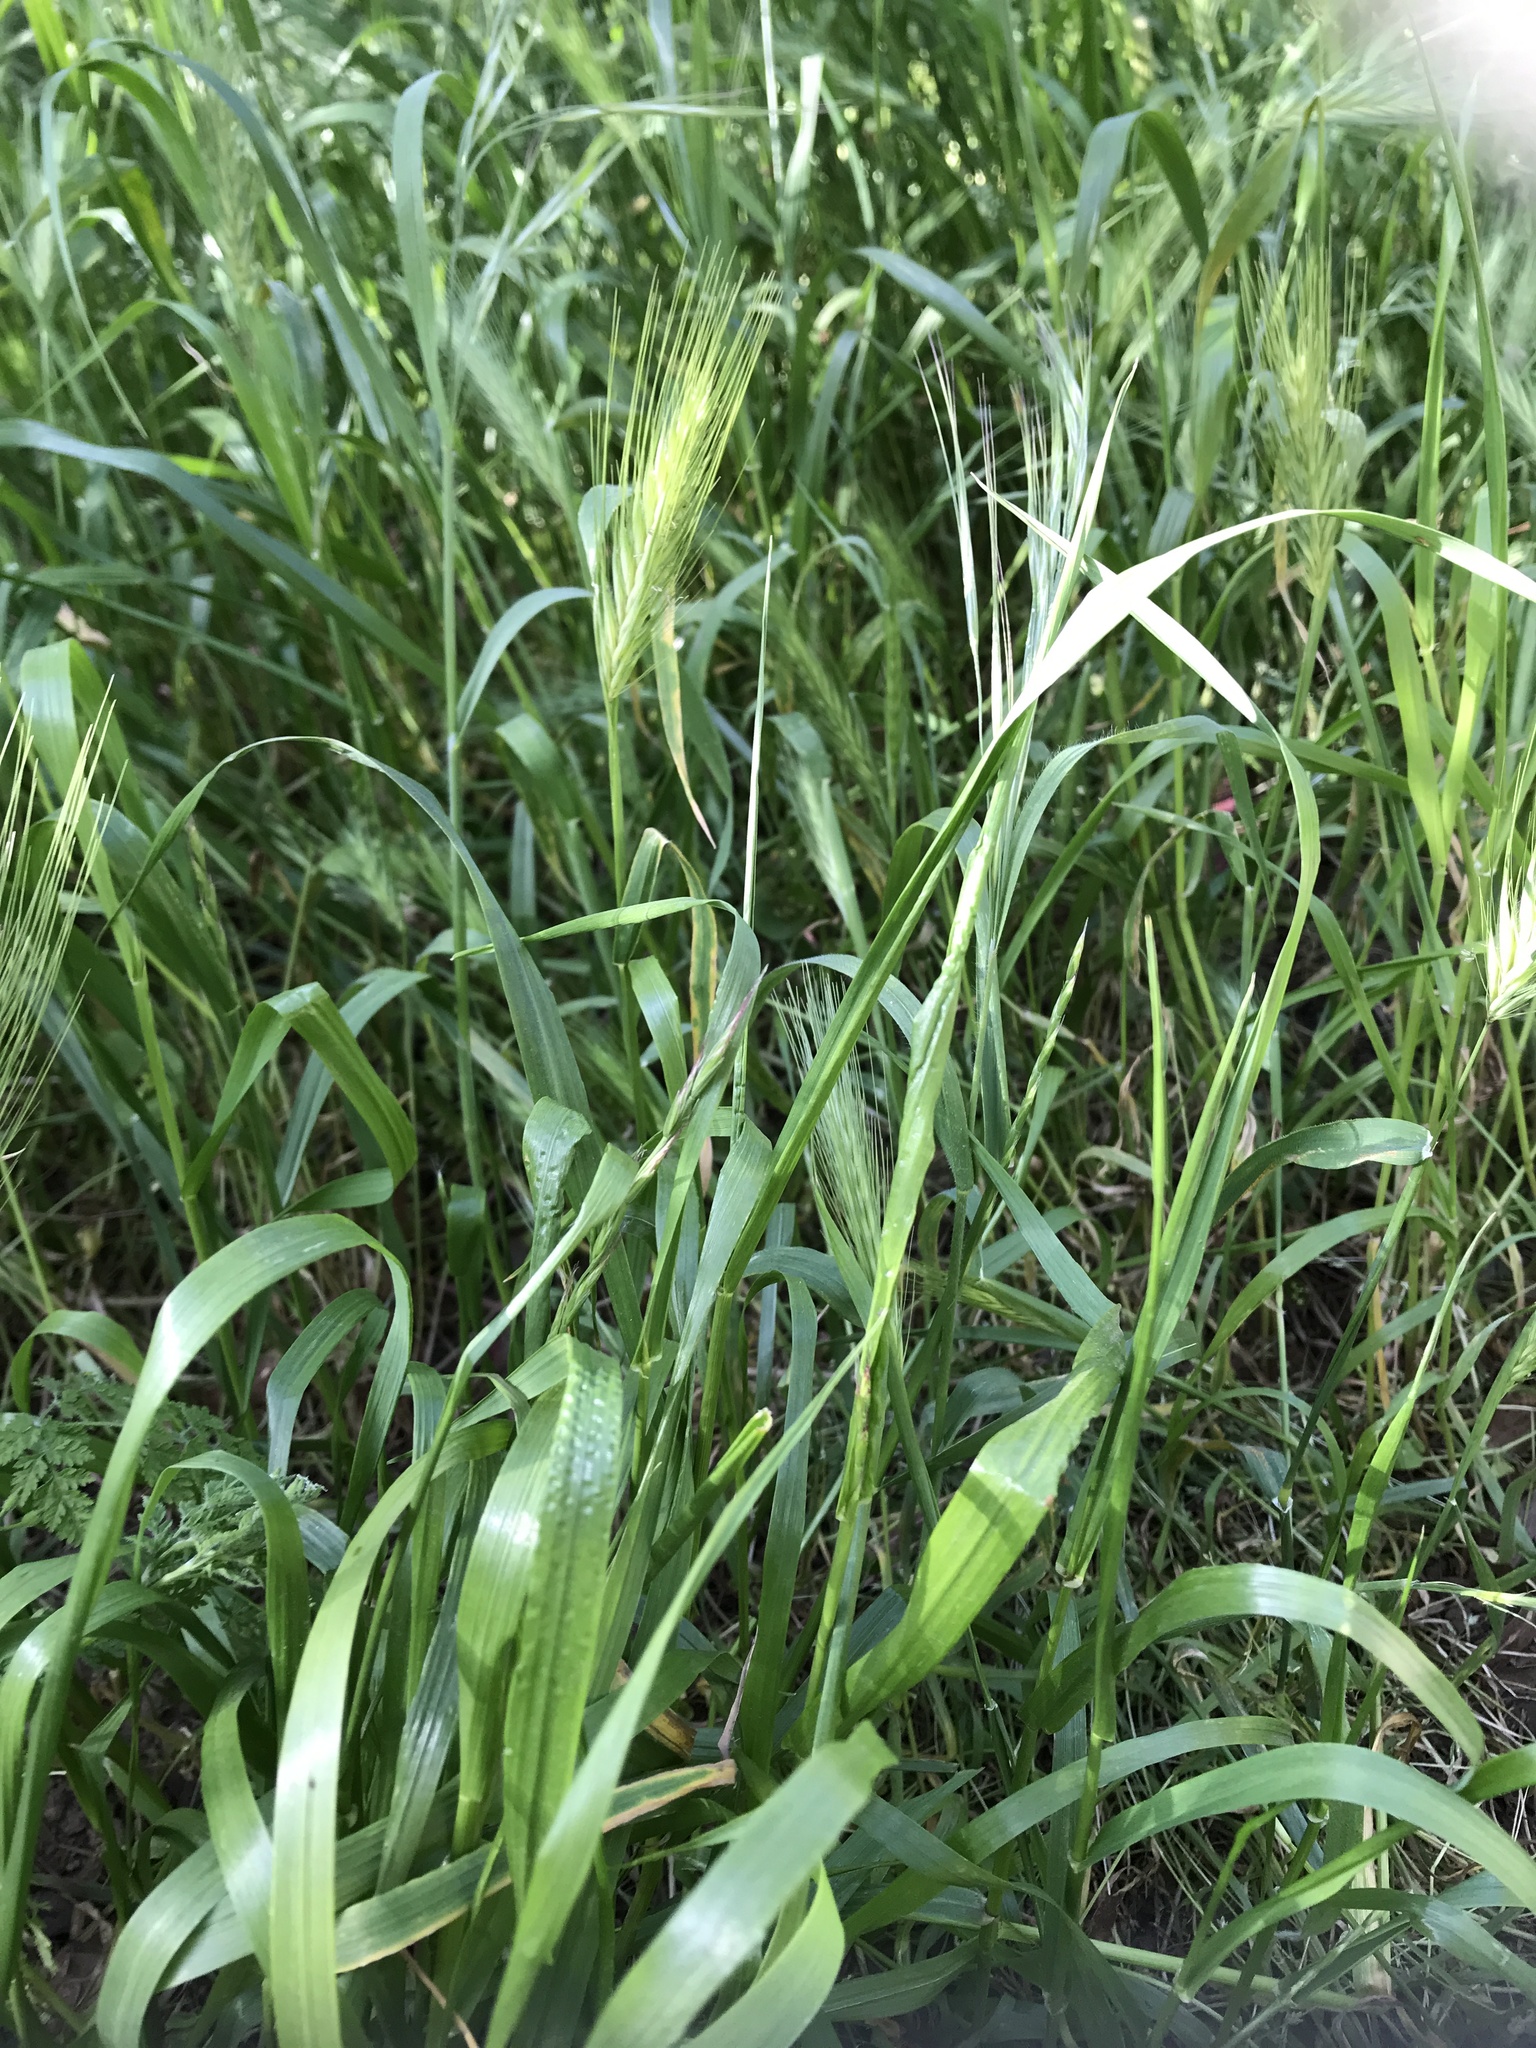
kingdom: Plantae
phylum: Tracheophyta
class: Liliopsida
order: Poales
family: Poaceae
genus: Hordeum
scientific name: Hordeum murinum
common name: Wall barley
